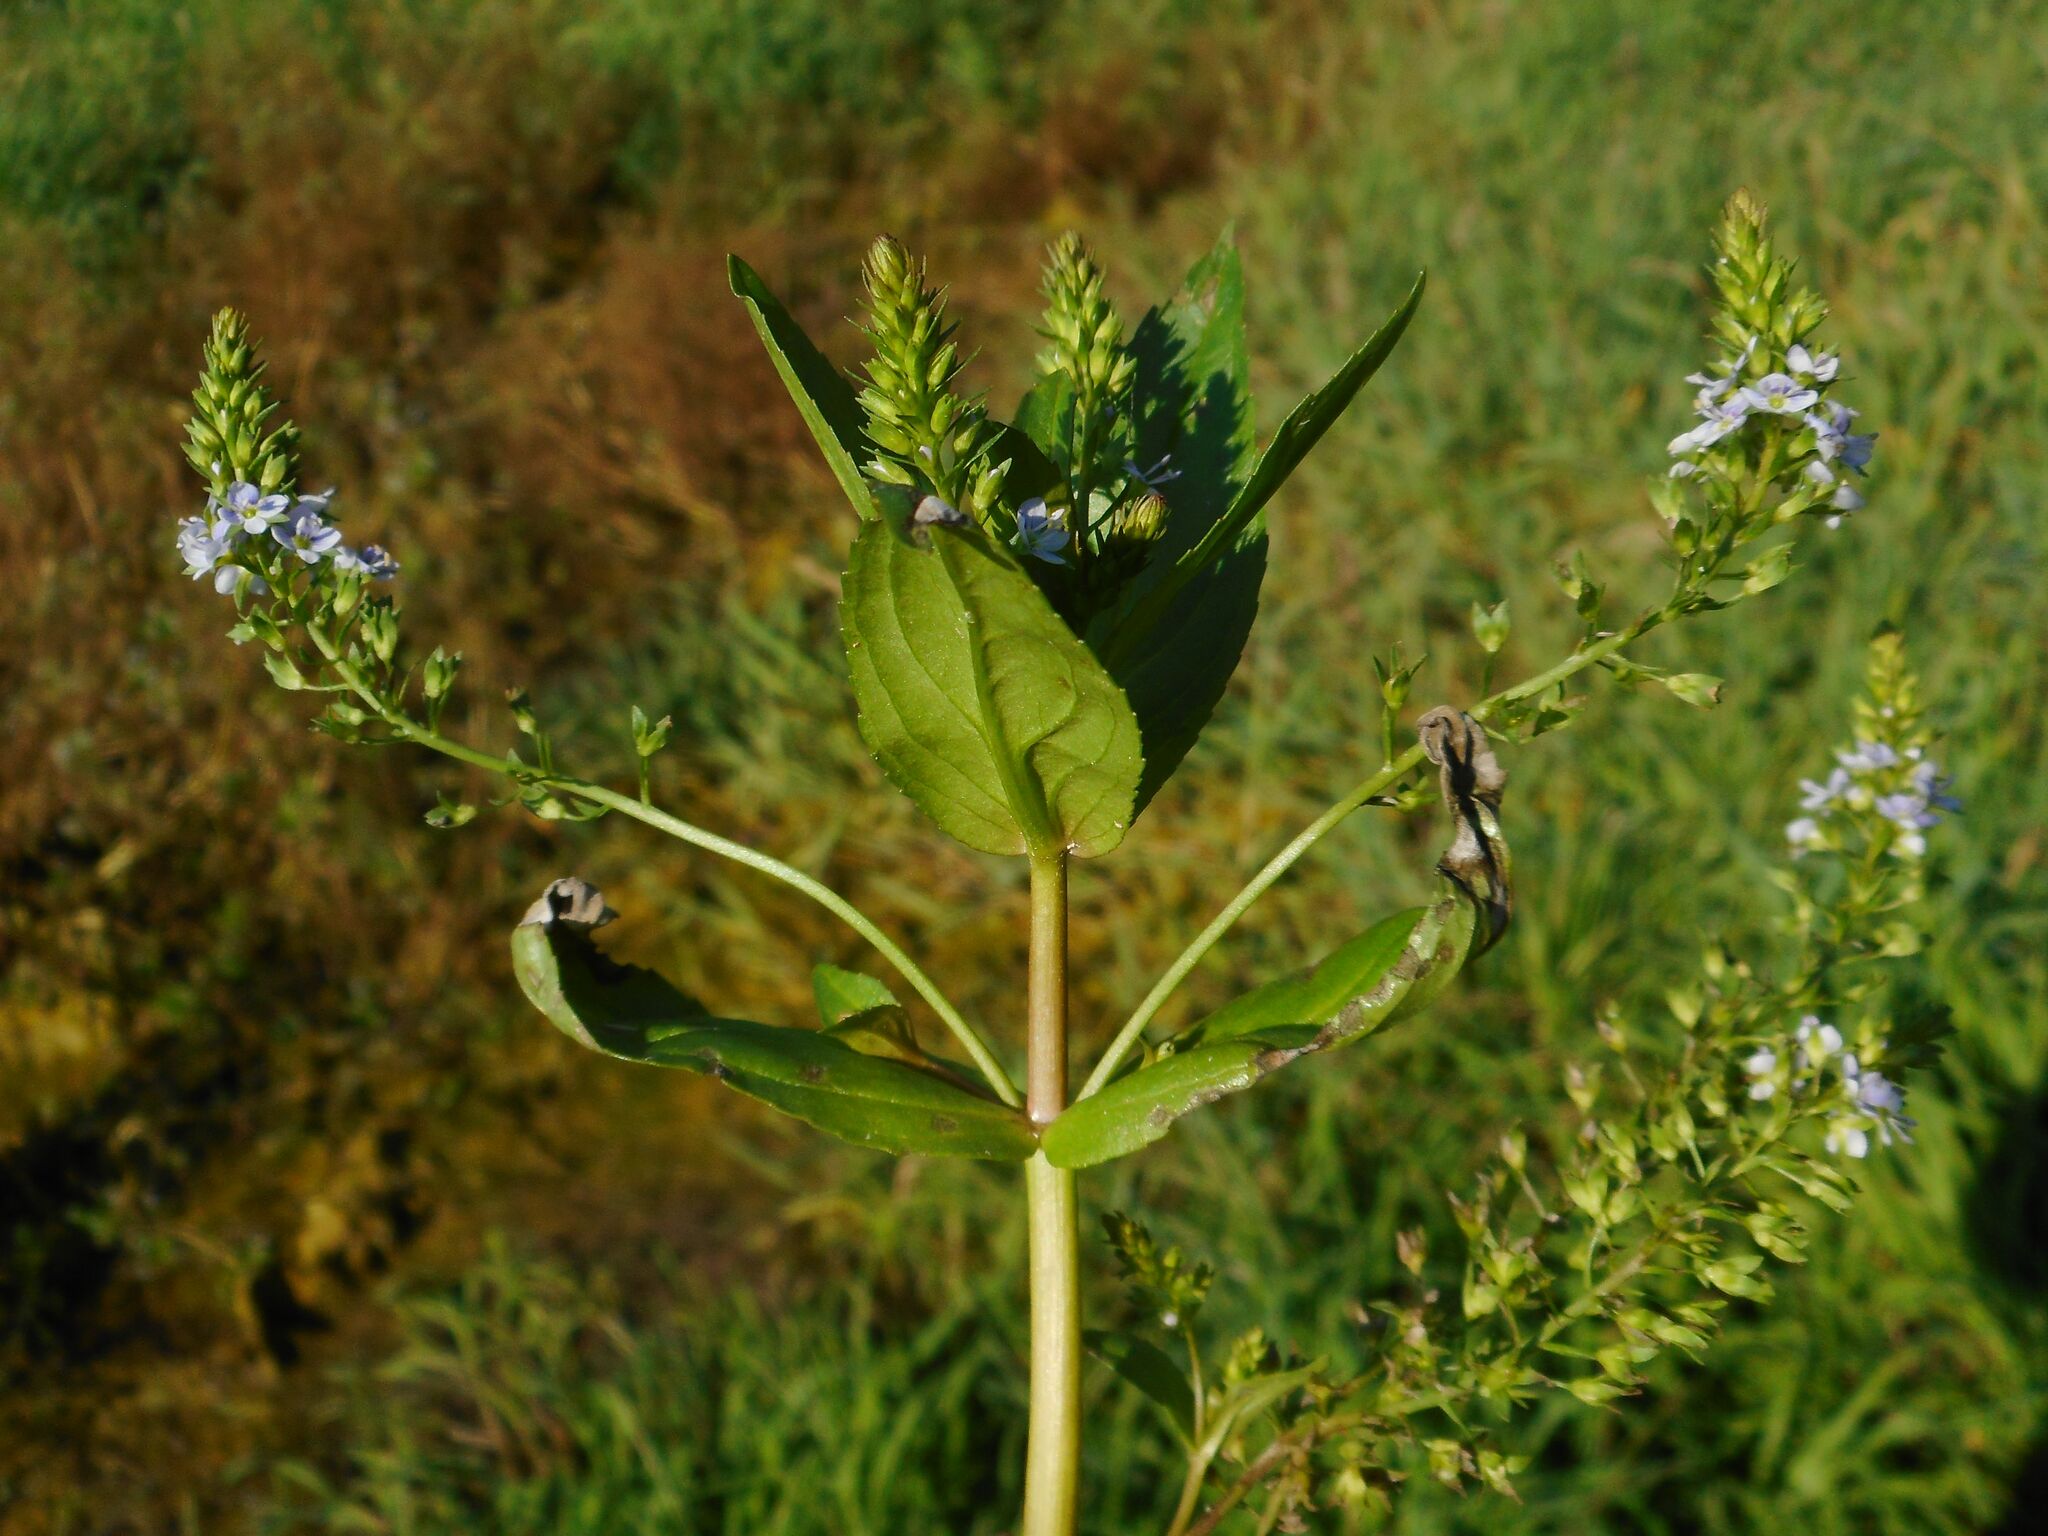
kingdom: Plantae
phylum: Tracheophyta
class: Magnoliopsida
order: Lamiales
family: Plantaginaceae
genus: Veronica
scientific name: Veronica anagallis-aquatica
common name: Water speedwell
